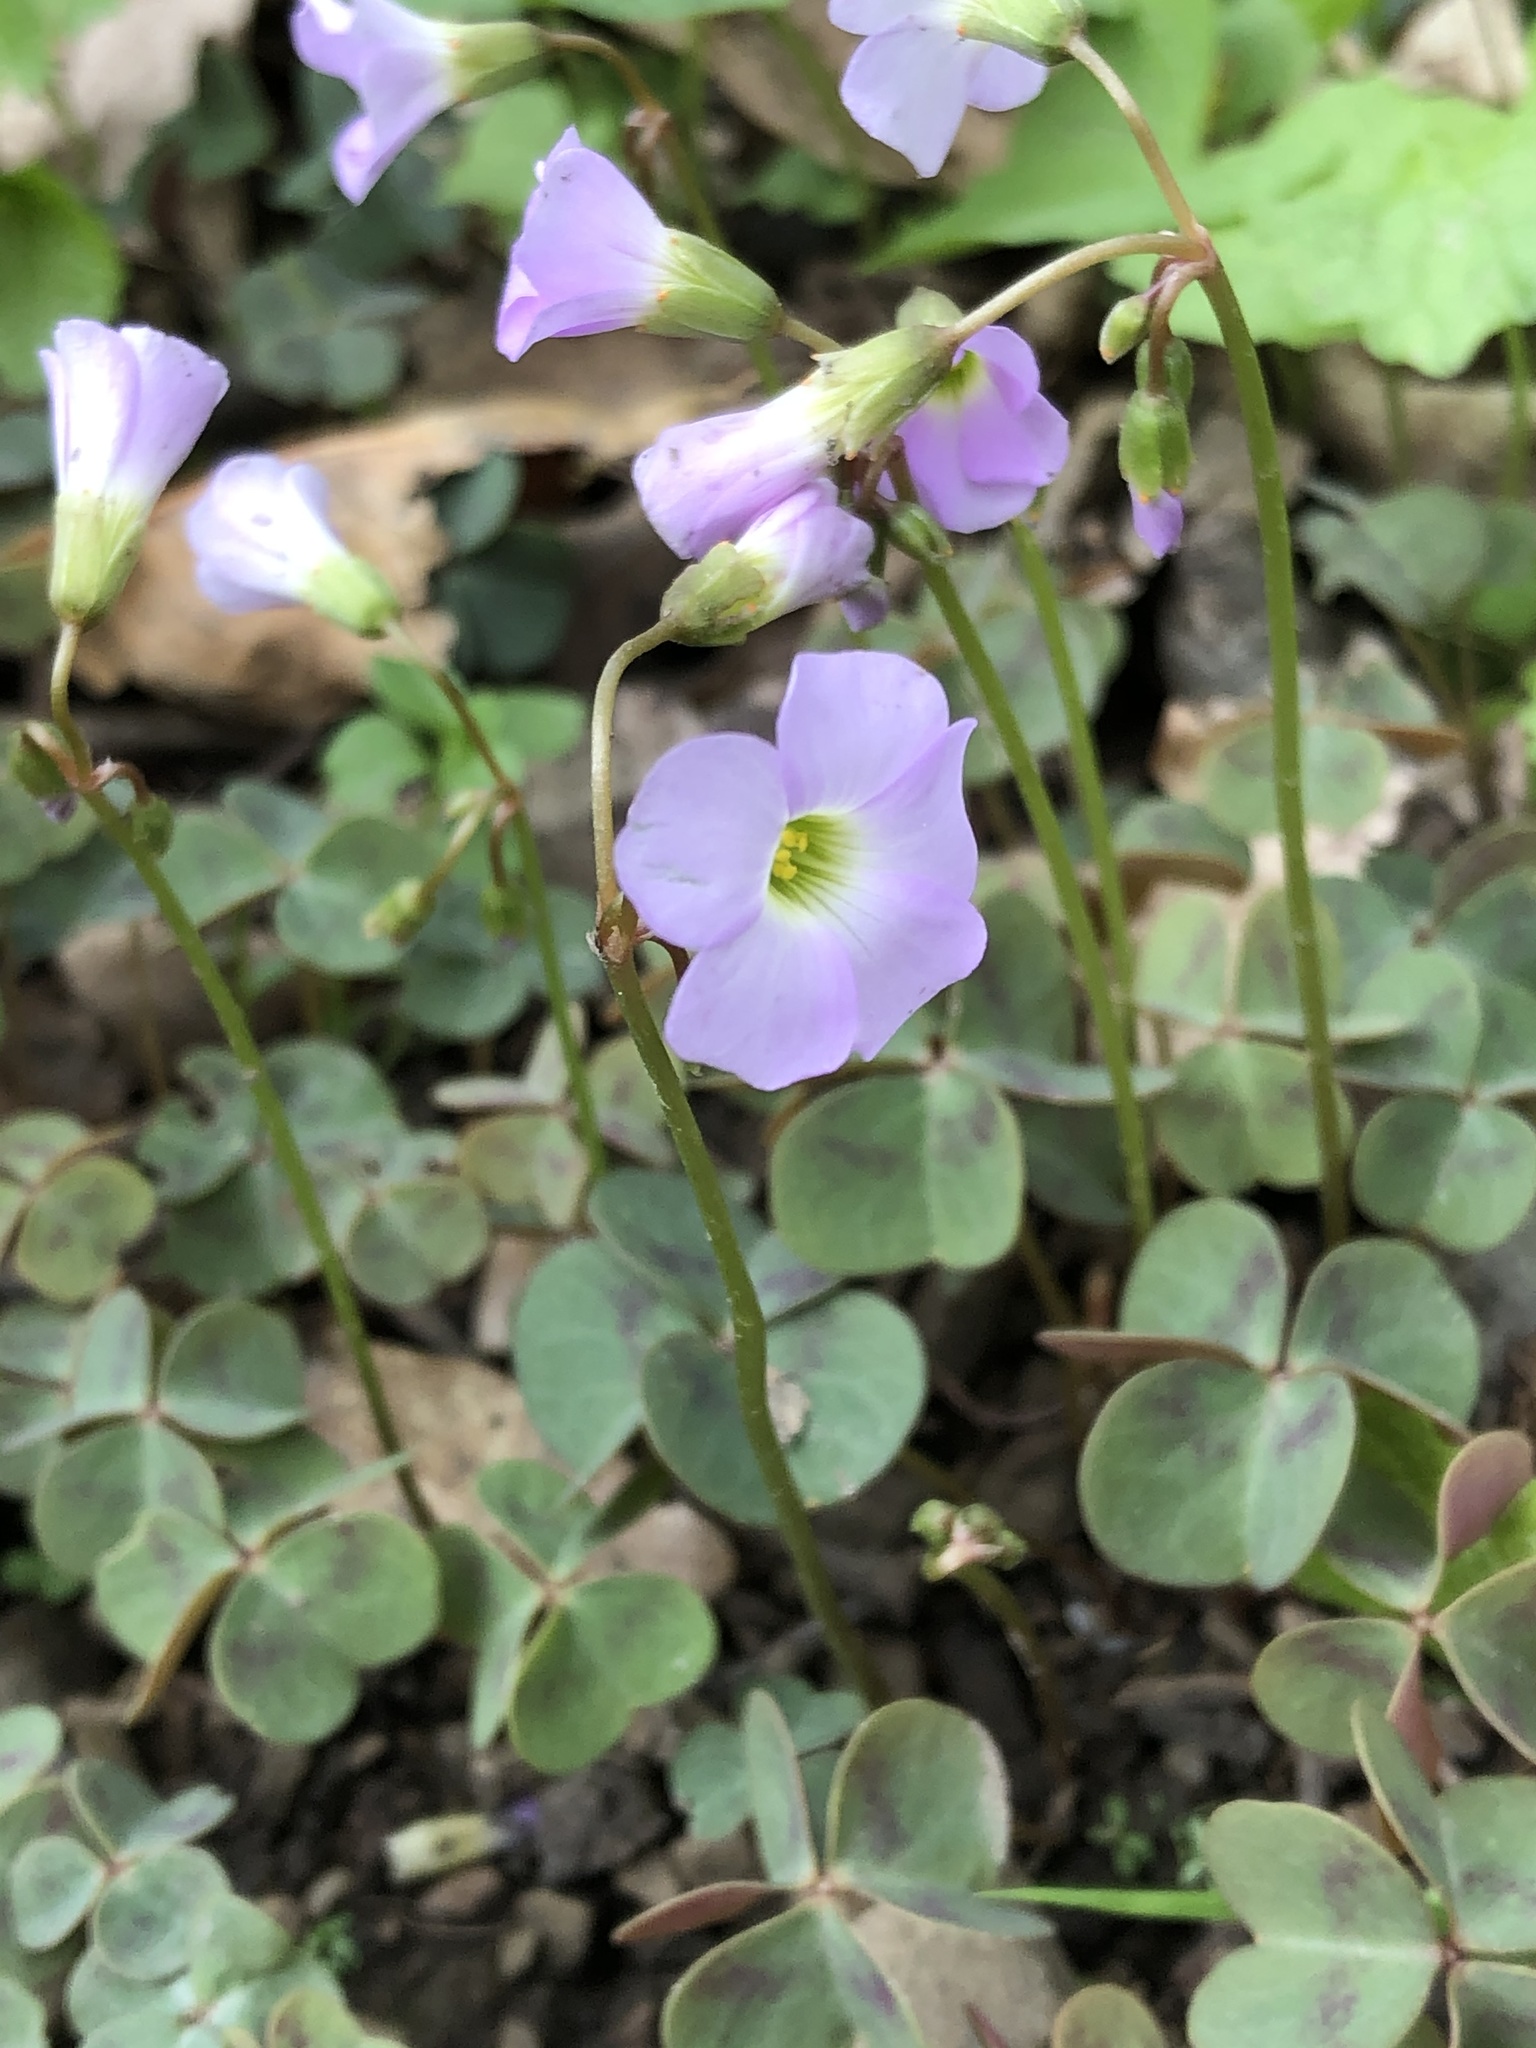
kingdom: Plantae
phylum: Tracheophyta
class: Magnoliopsida
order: Oxalidales
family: Oxalidaceae
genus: Oxalis
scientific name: Oxalis violacea
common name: Violet wood-sorrel
